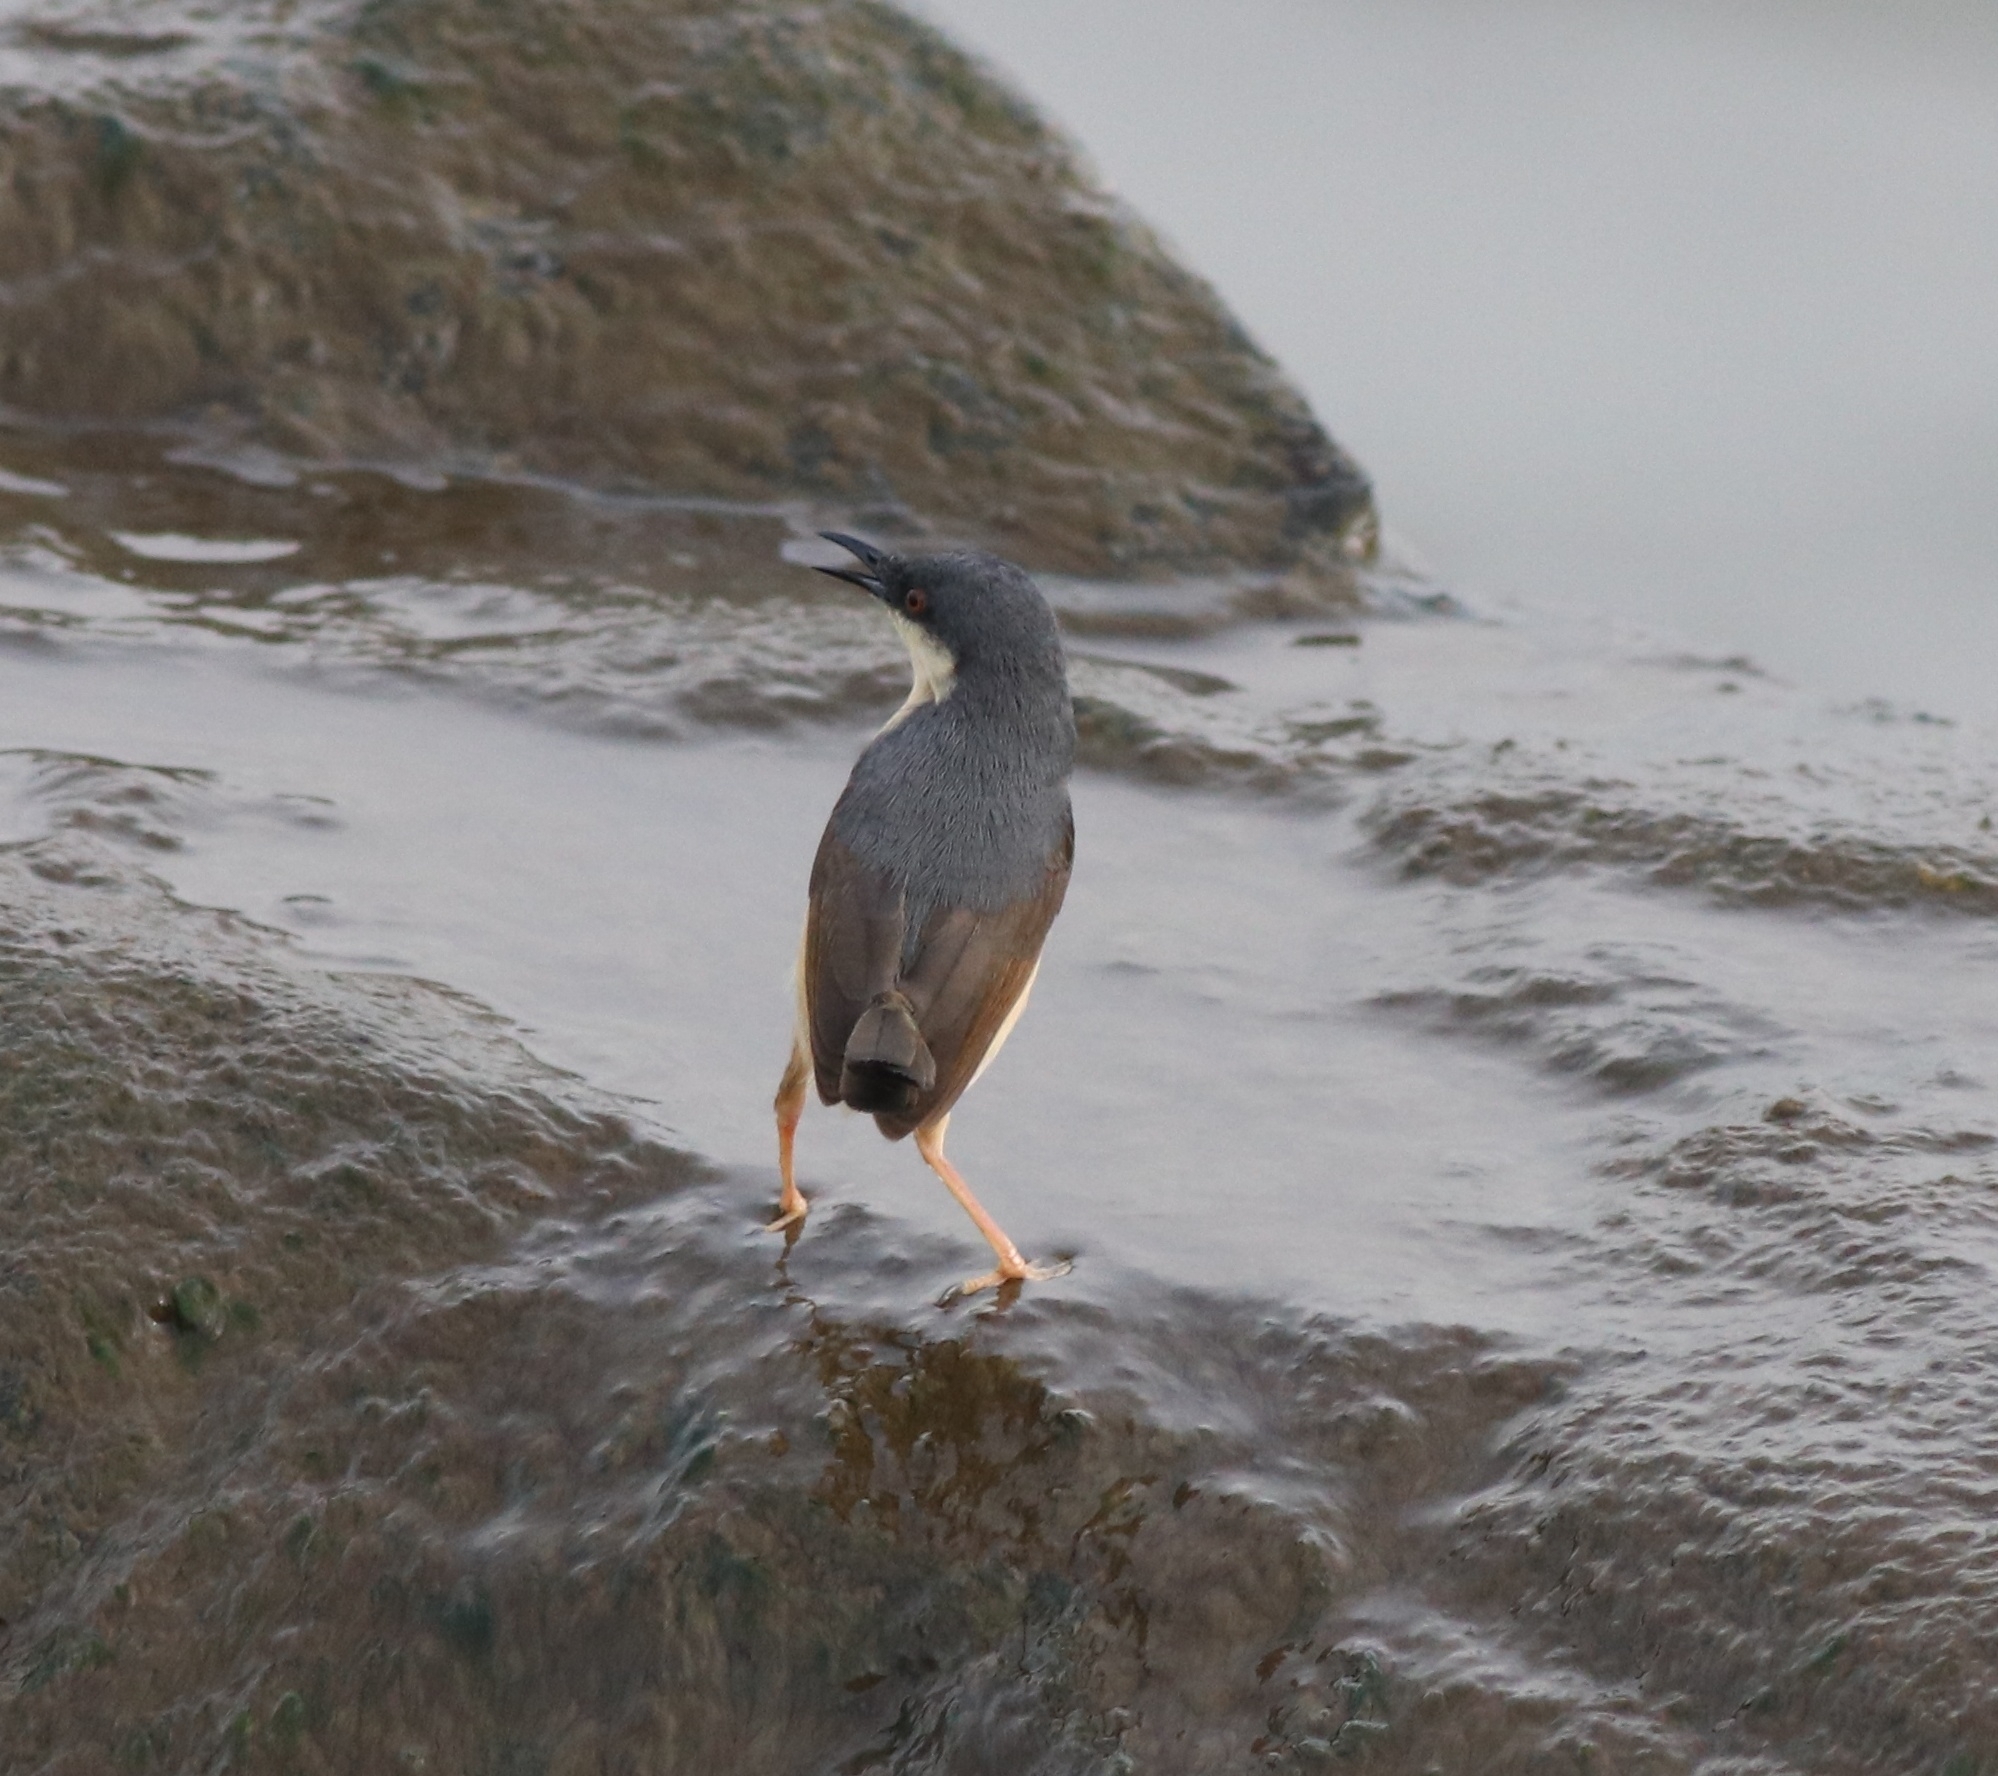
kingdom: Animalia
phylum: Chordata
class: Aves
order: Passeriformes
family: Cisticolidae
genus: Prinia
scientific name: Prinia socialis
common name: Ashy prinia
